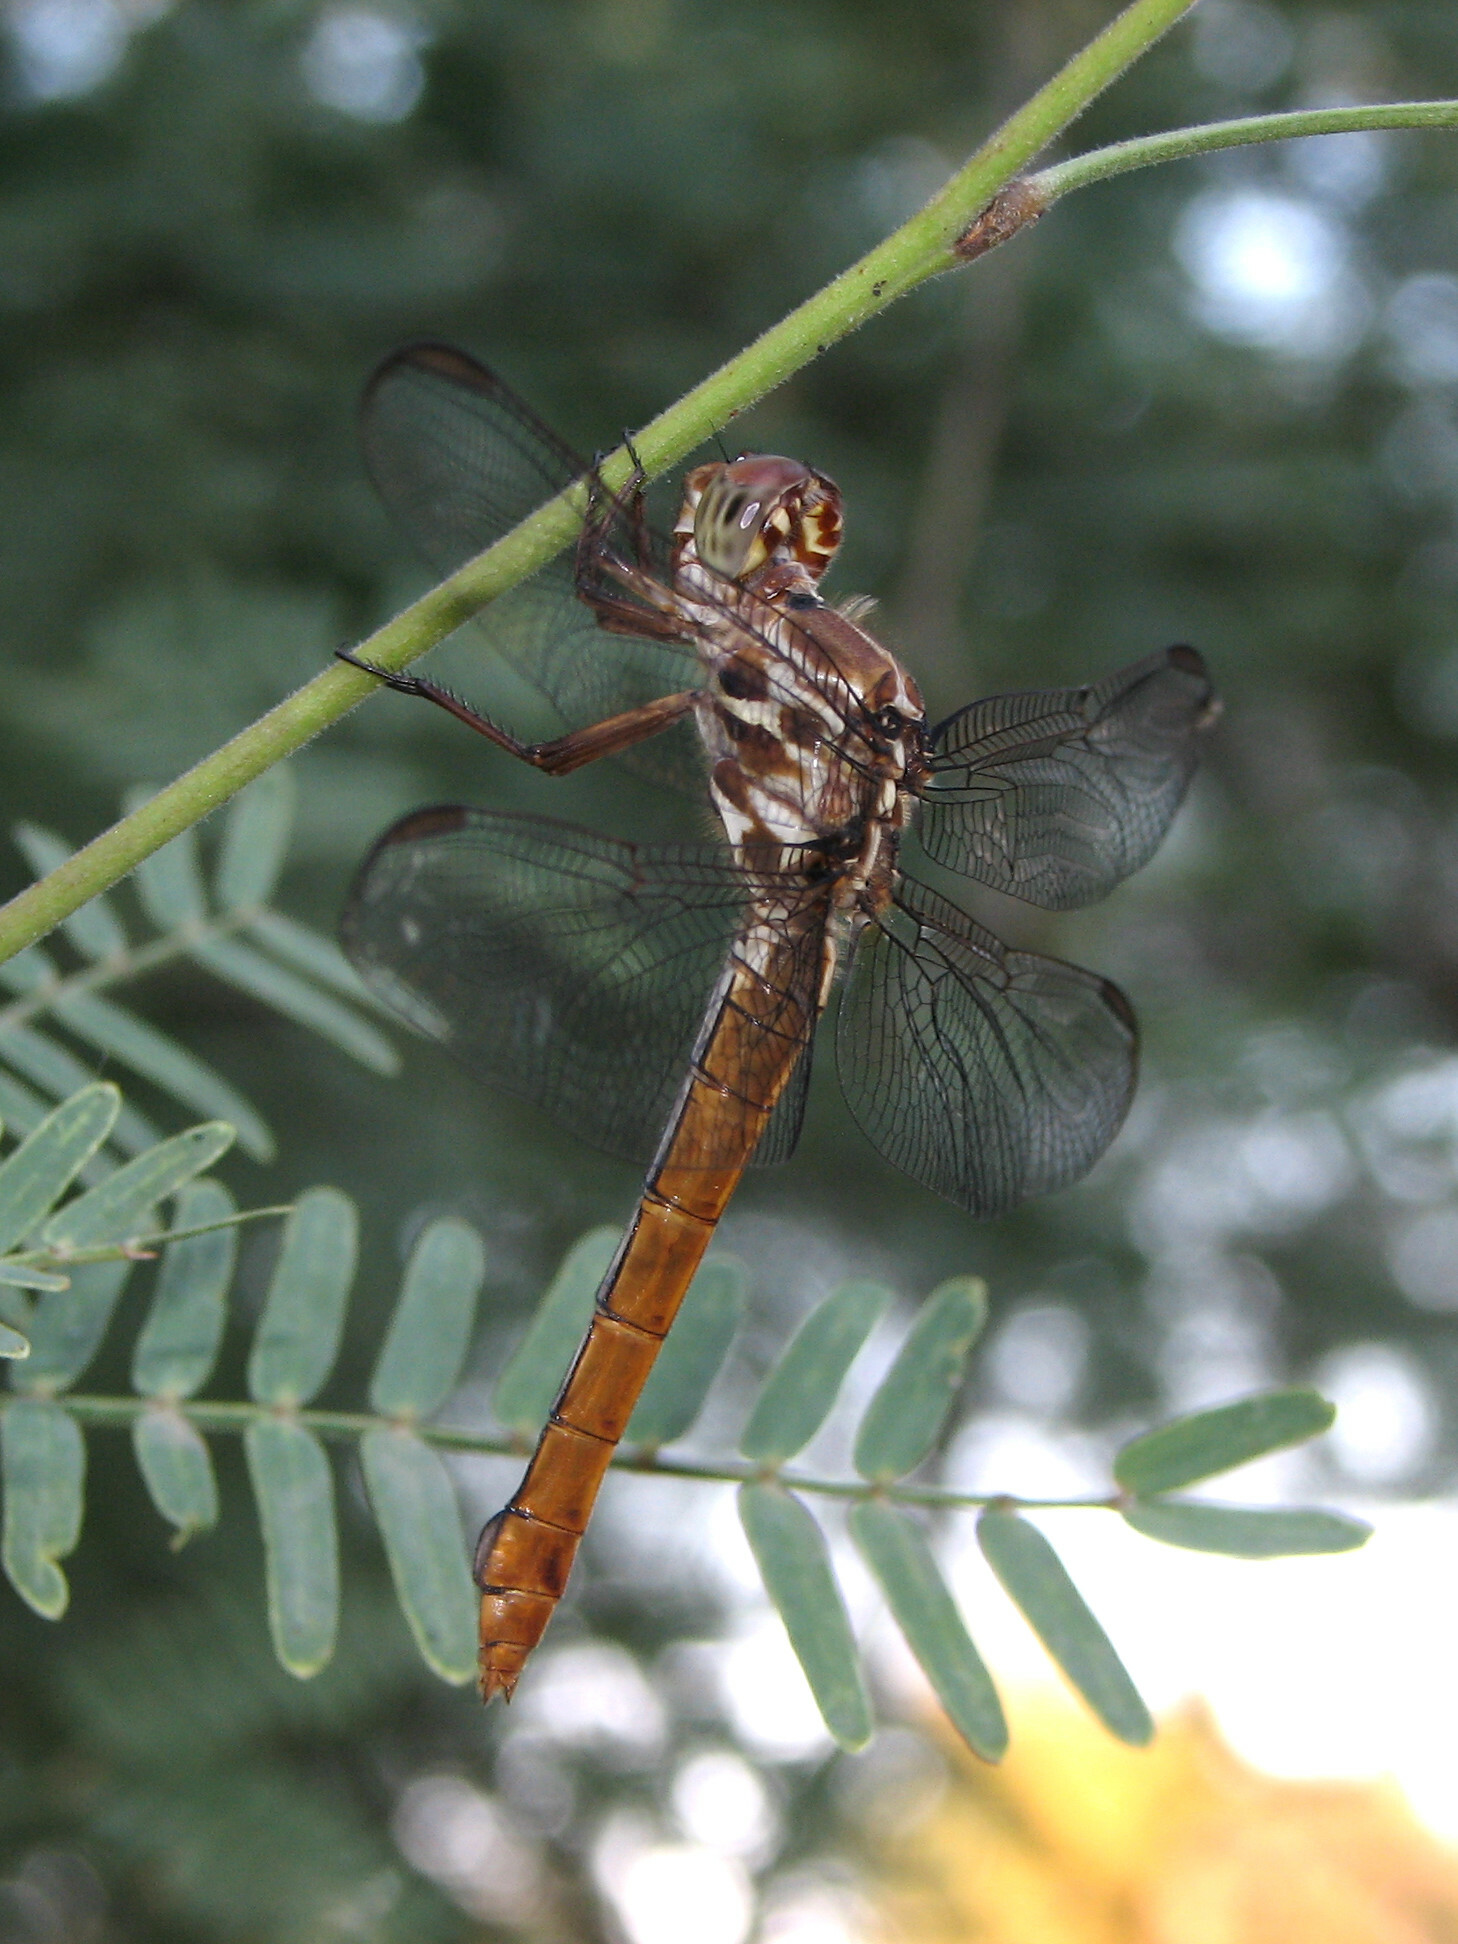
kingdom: Animalia
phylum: Arthropoda
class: Insecta
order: Odonata
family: Libellulidae
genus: Orthemis
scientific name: Orthemis ferruginea
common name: Roseate skimmer
